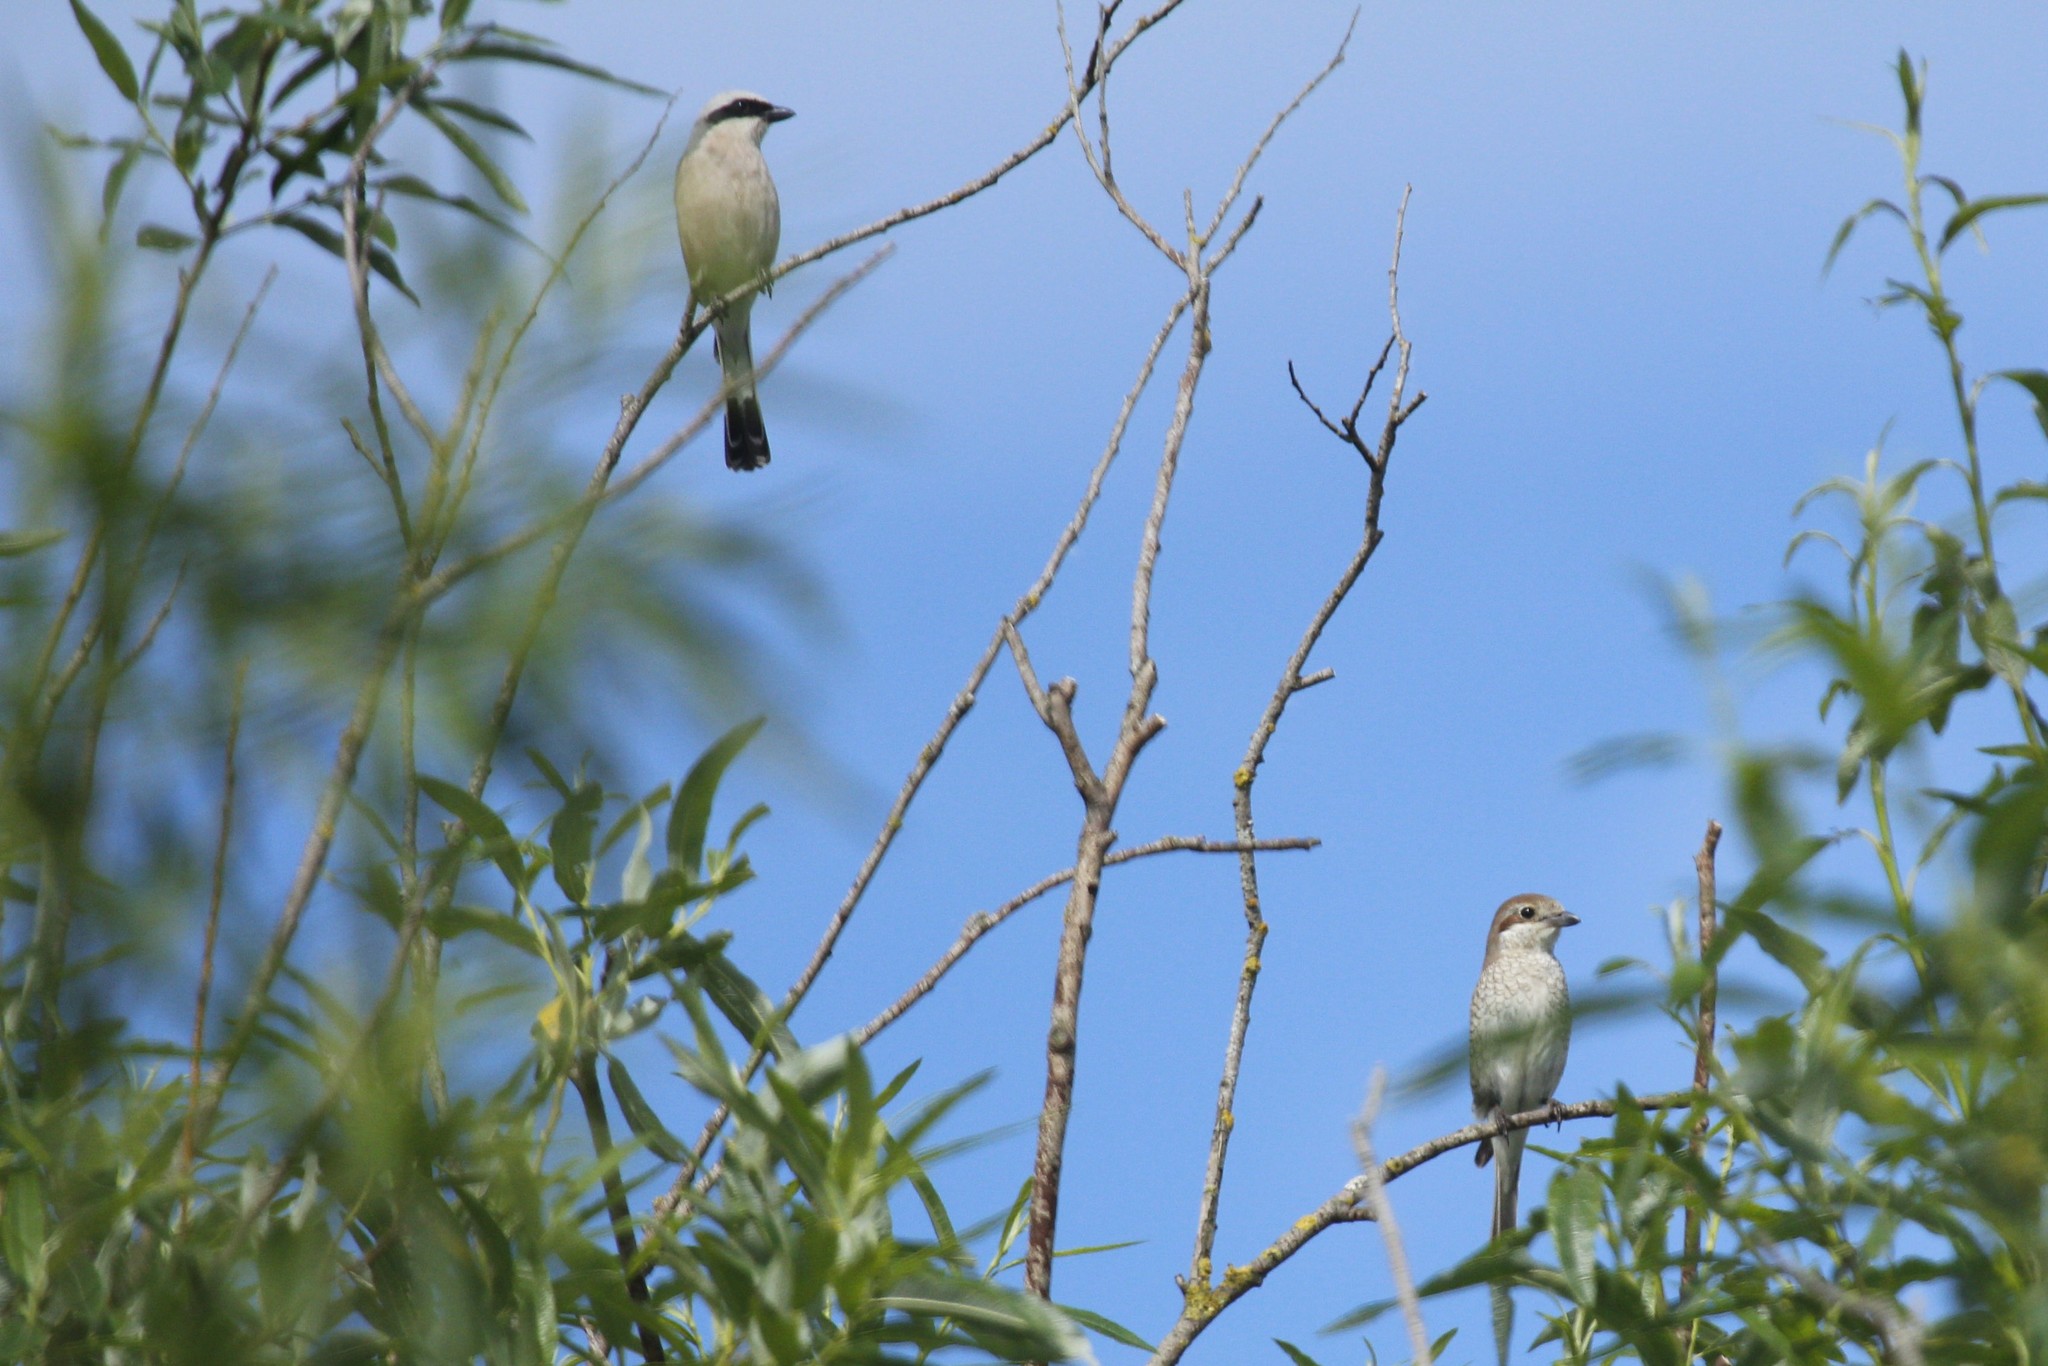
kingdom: Animalia
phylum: Chordata
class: Aves
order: Passeriformes
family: Laniidae
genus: Lanius
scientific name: Lanius collurio
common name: Red-backed shrike
